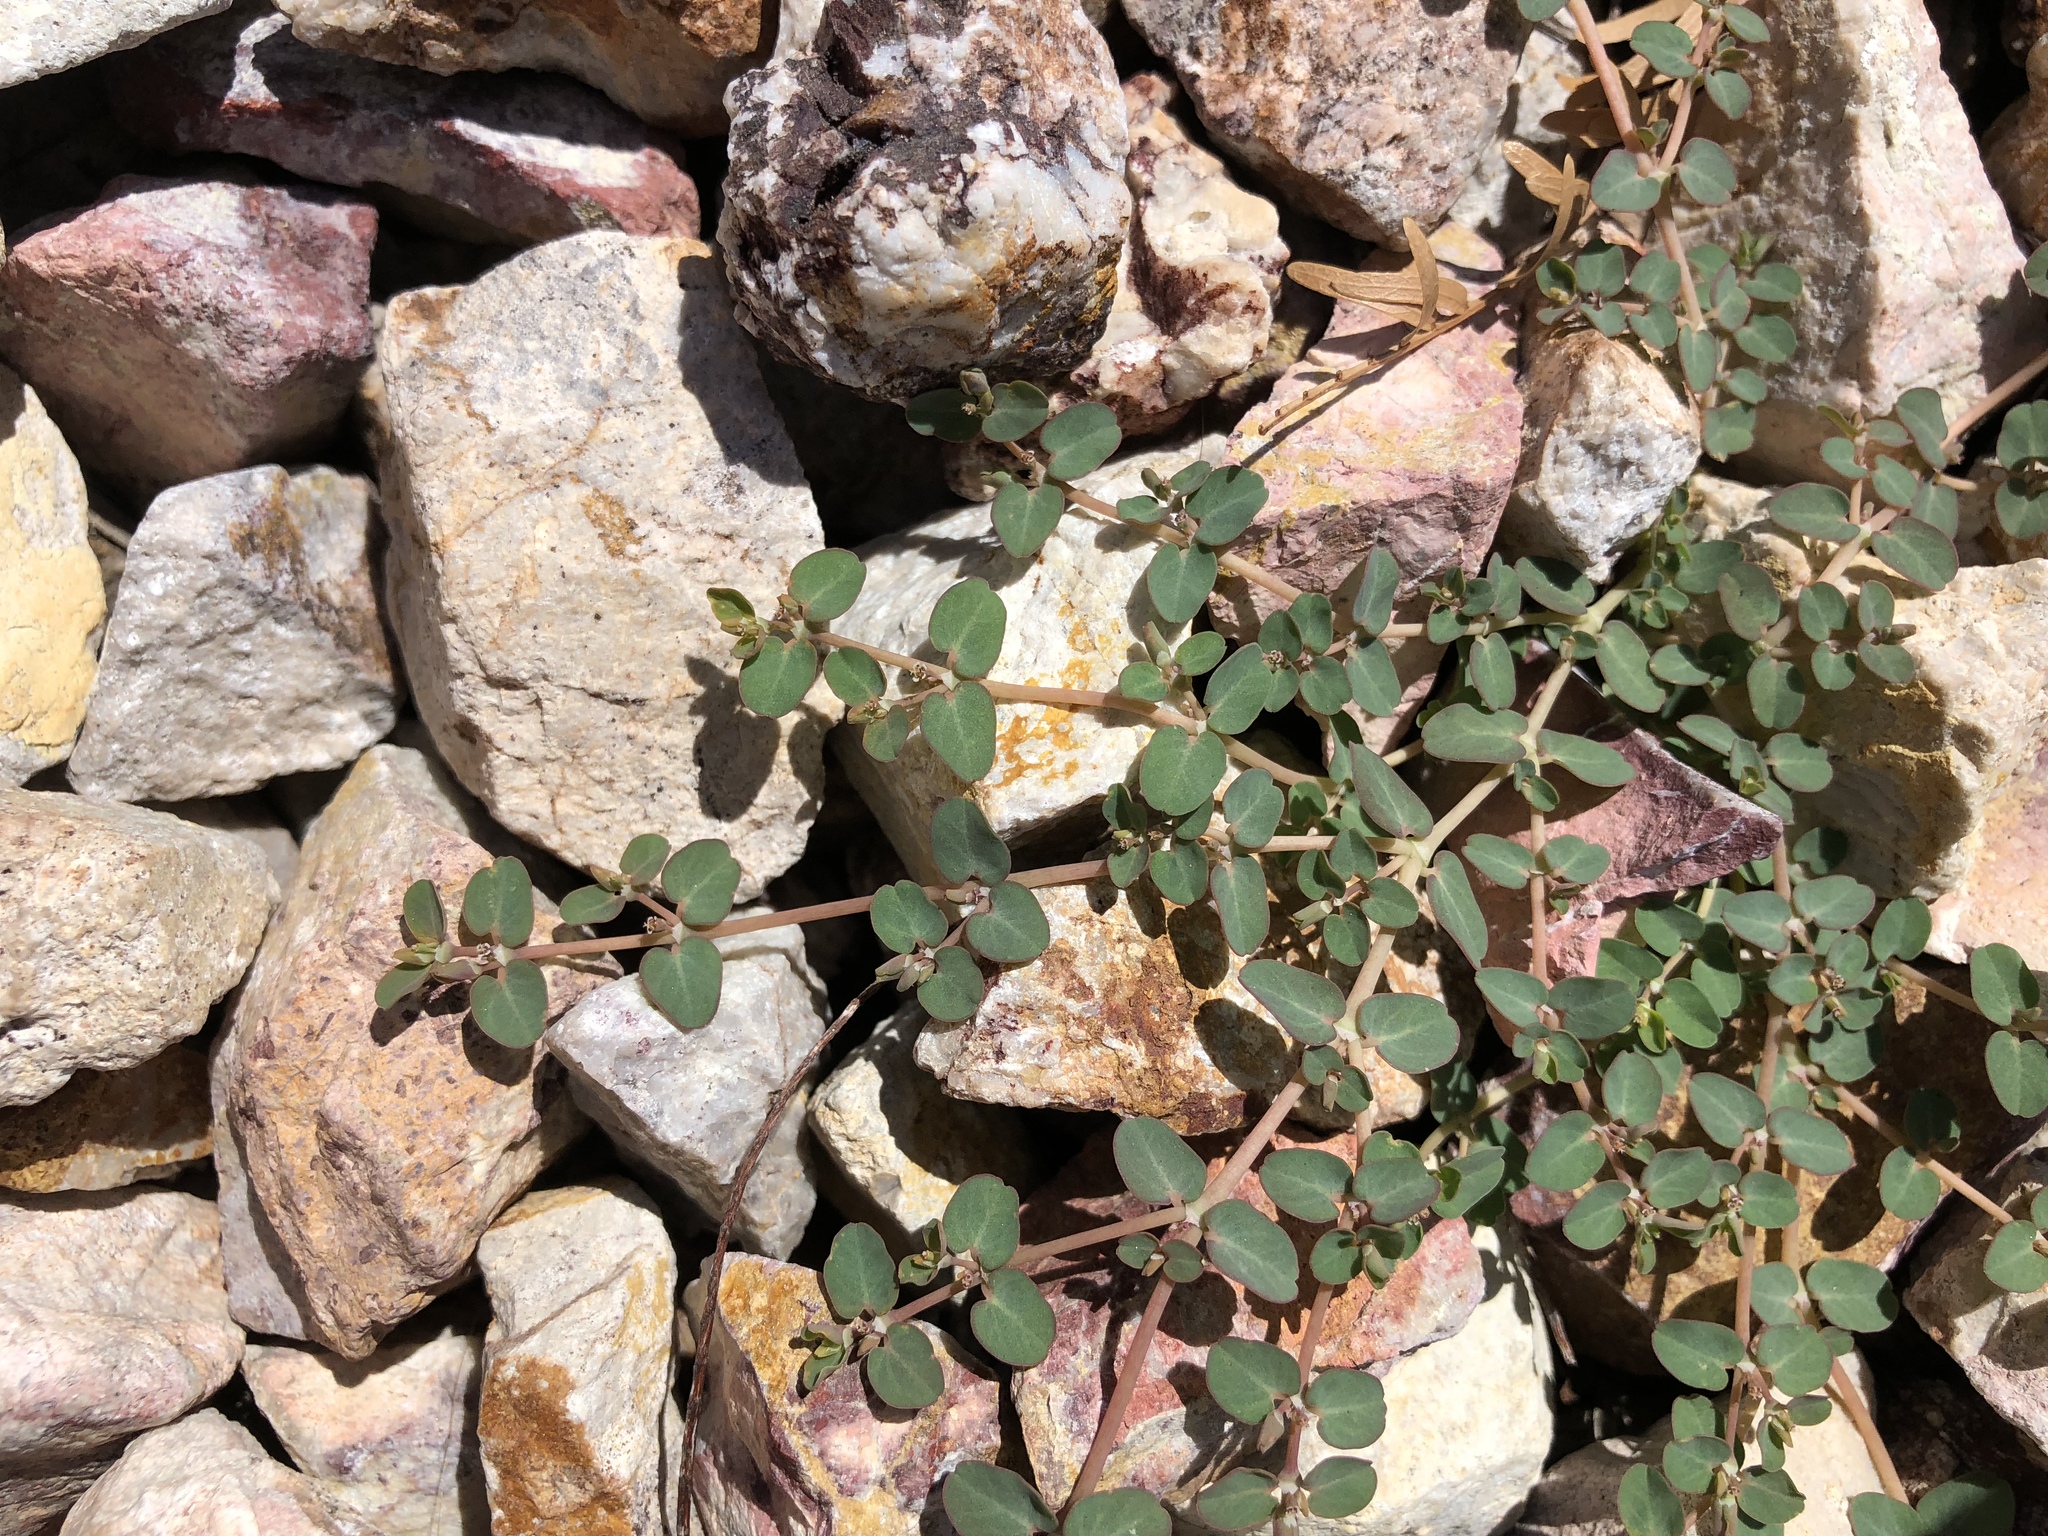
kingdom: Plantae
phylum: Tracheophyta
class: Magnoliopsida
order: Malpighiales
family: Euphorbiaceae
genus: Euphorbia
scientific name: Euphorbia serpens
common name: Matted sandmat
